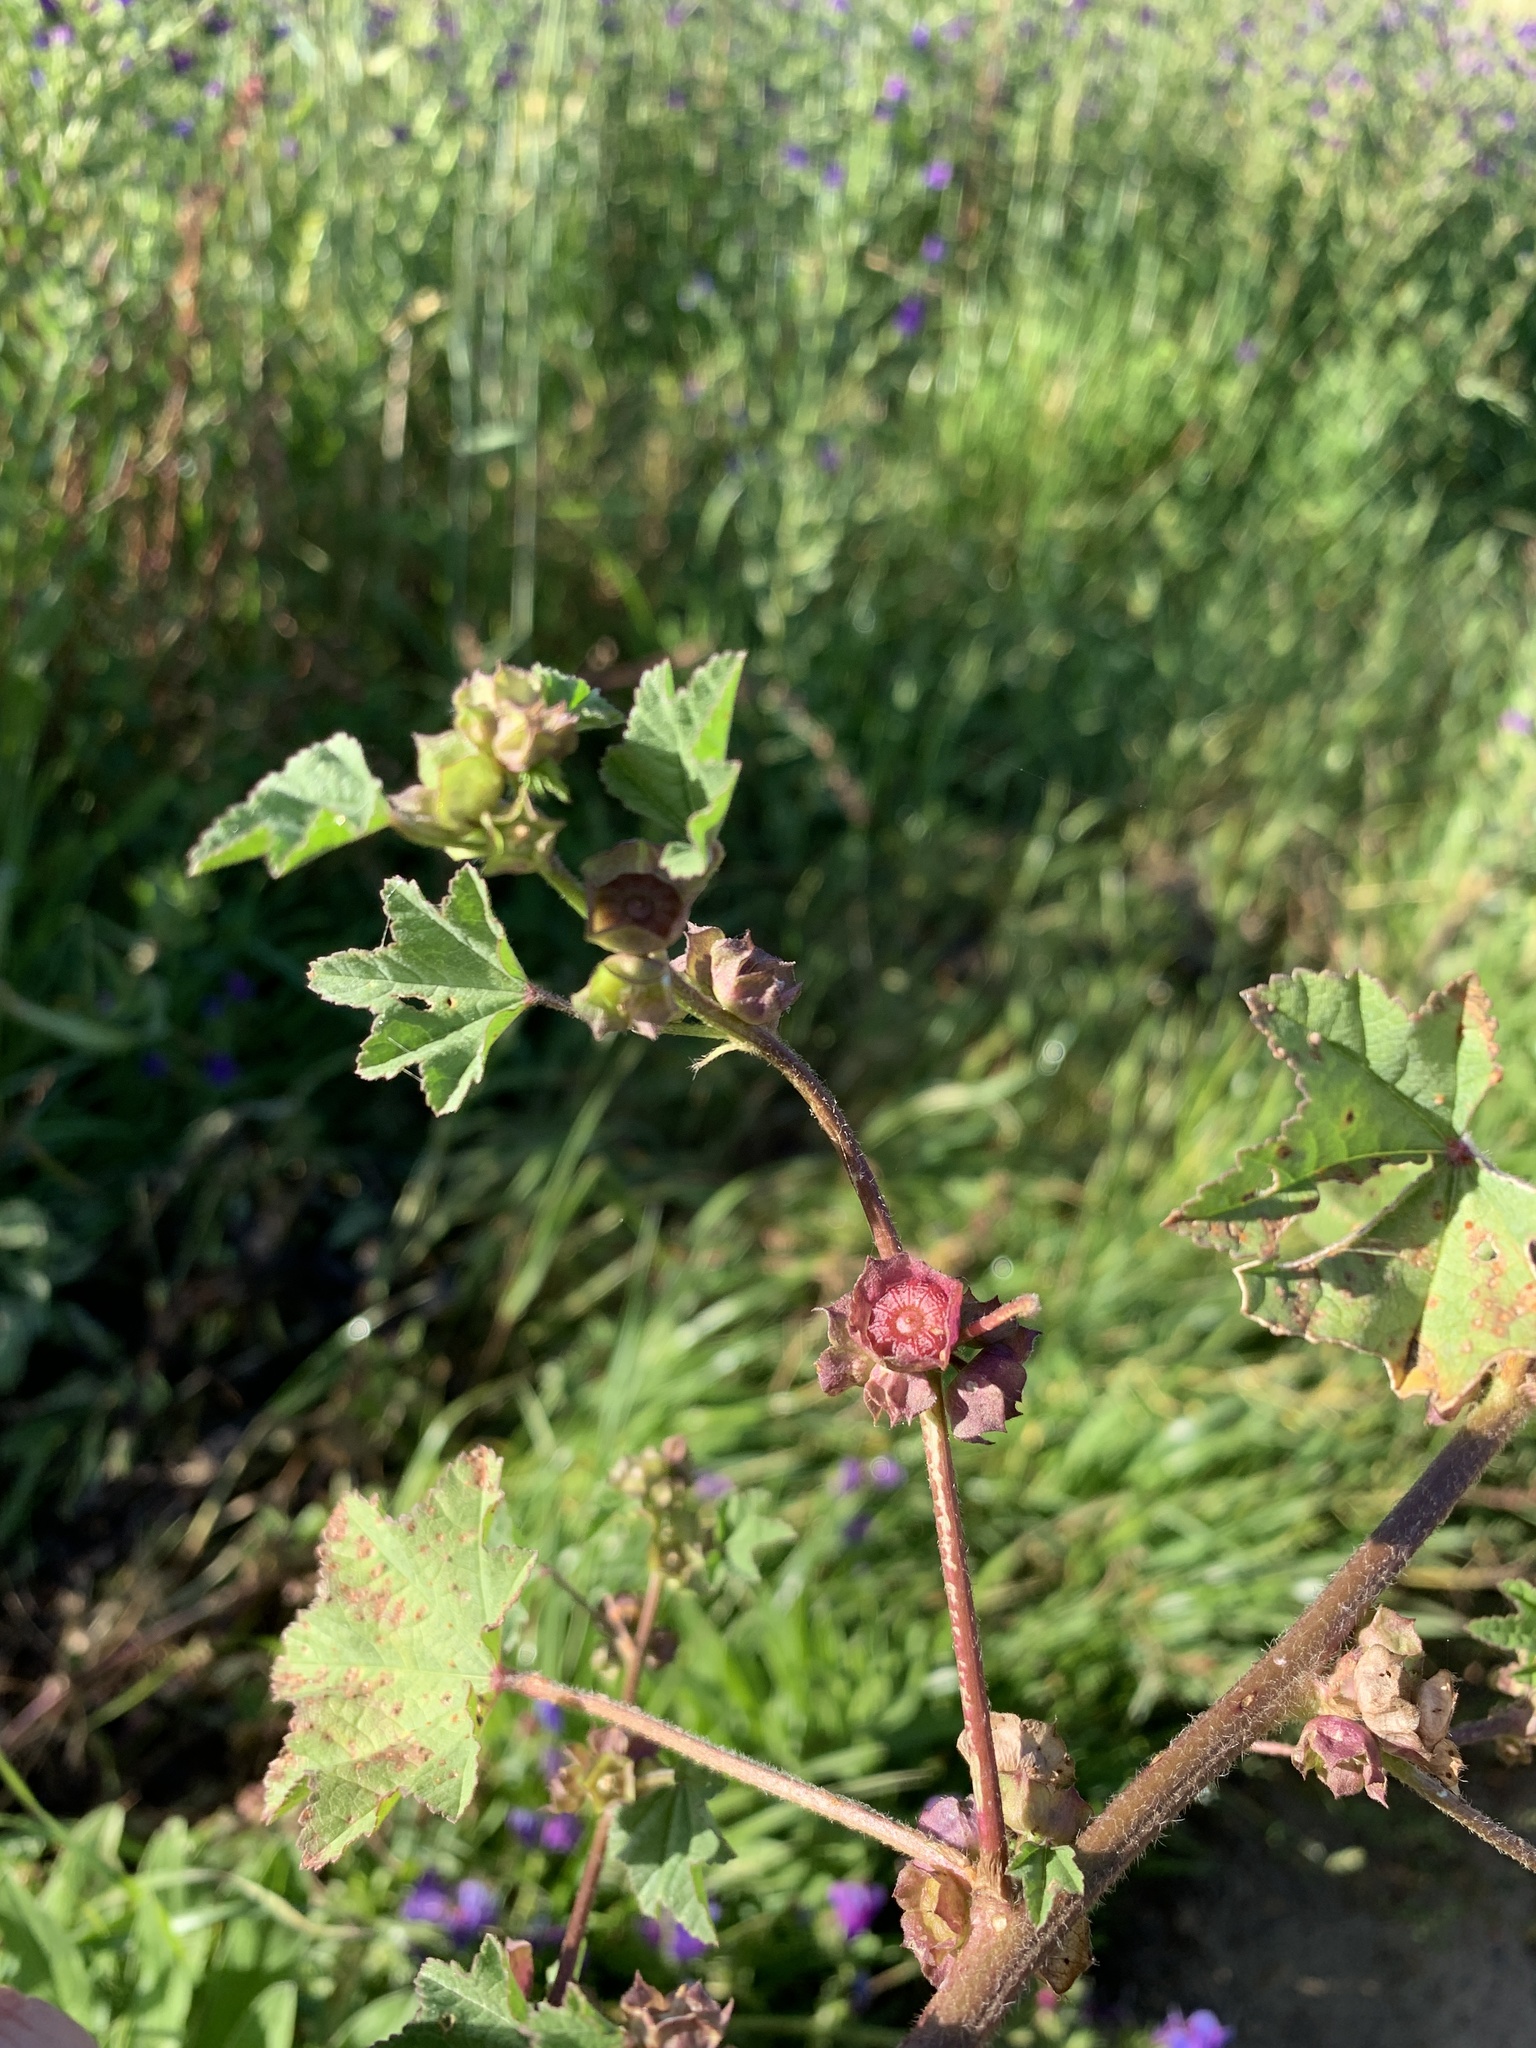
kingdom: Plantae
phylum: Tracheophyta
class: Magnoliopsida
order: Malvales
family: Malvaceae
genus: Malva
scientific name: Malva parviflora
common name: Least mallow
